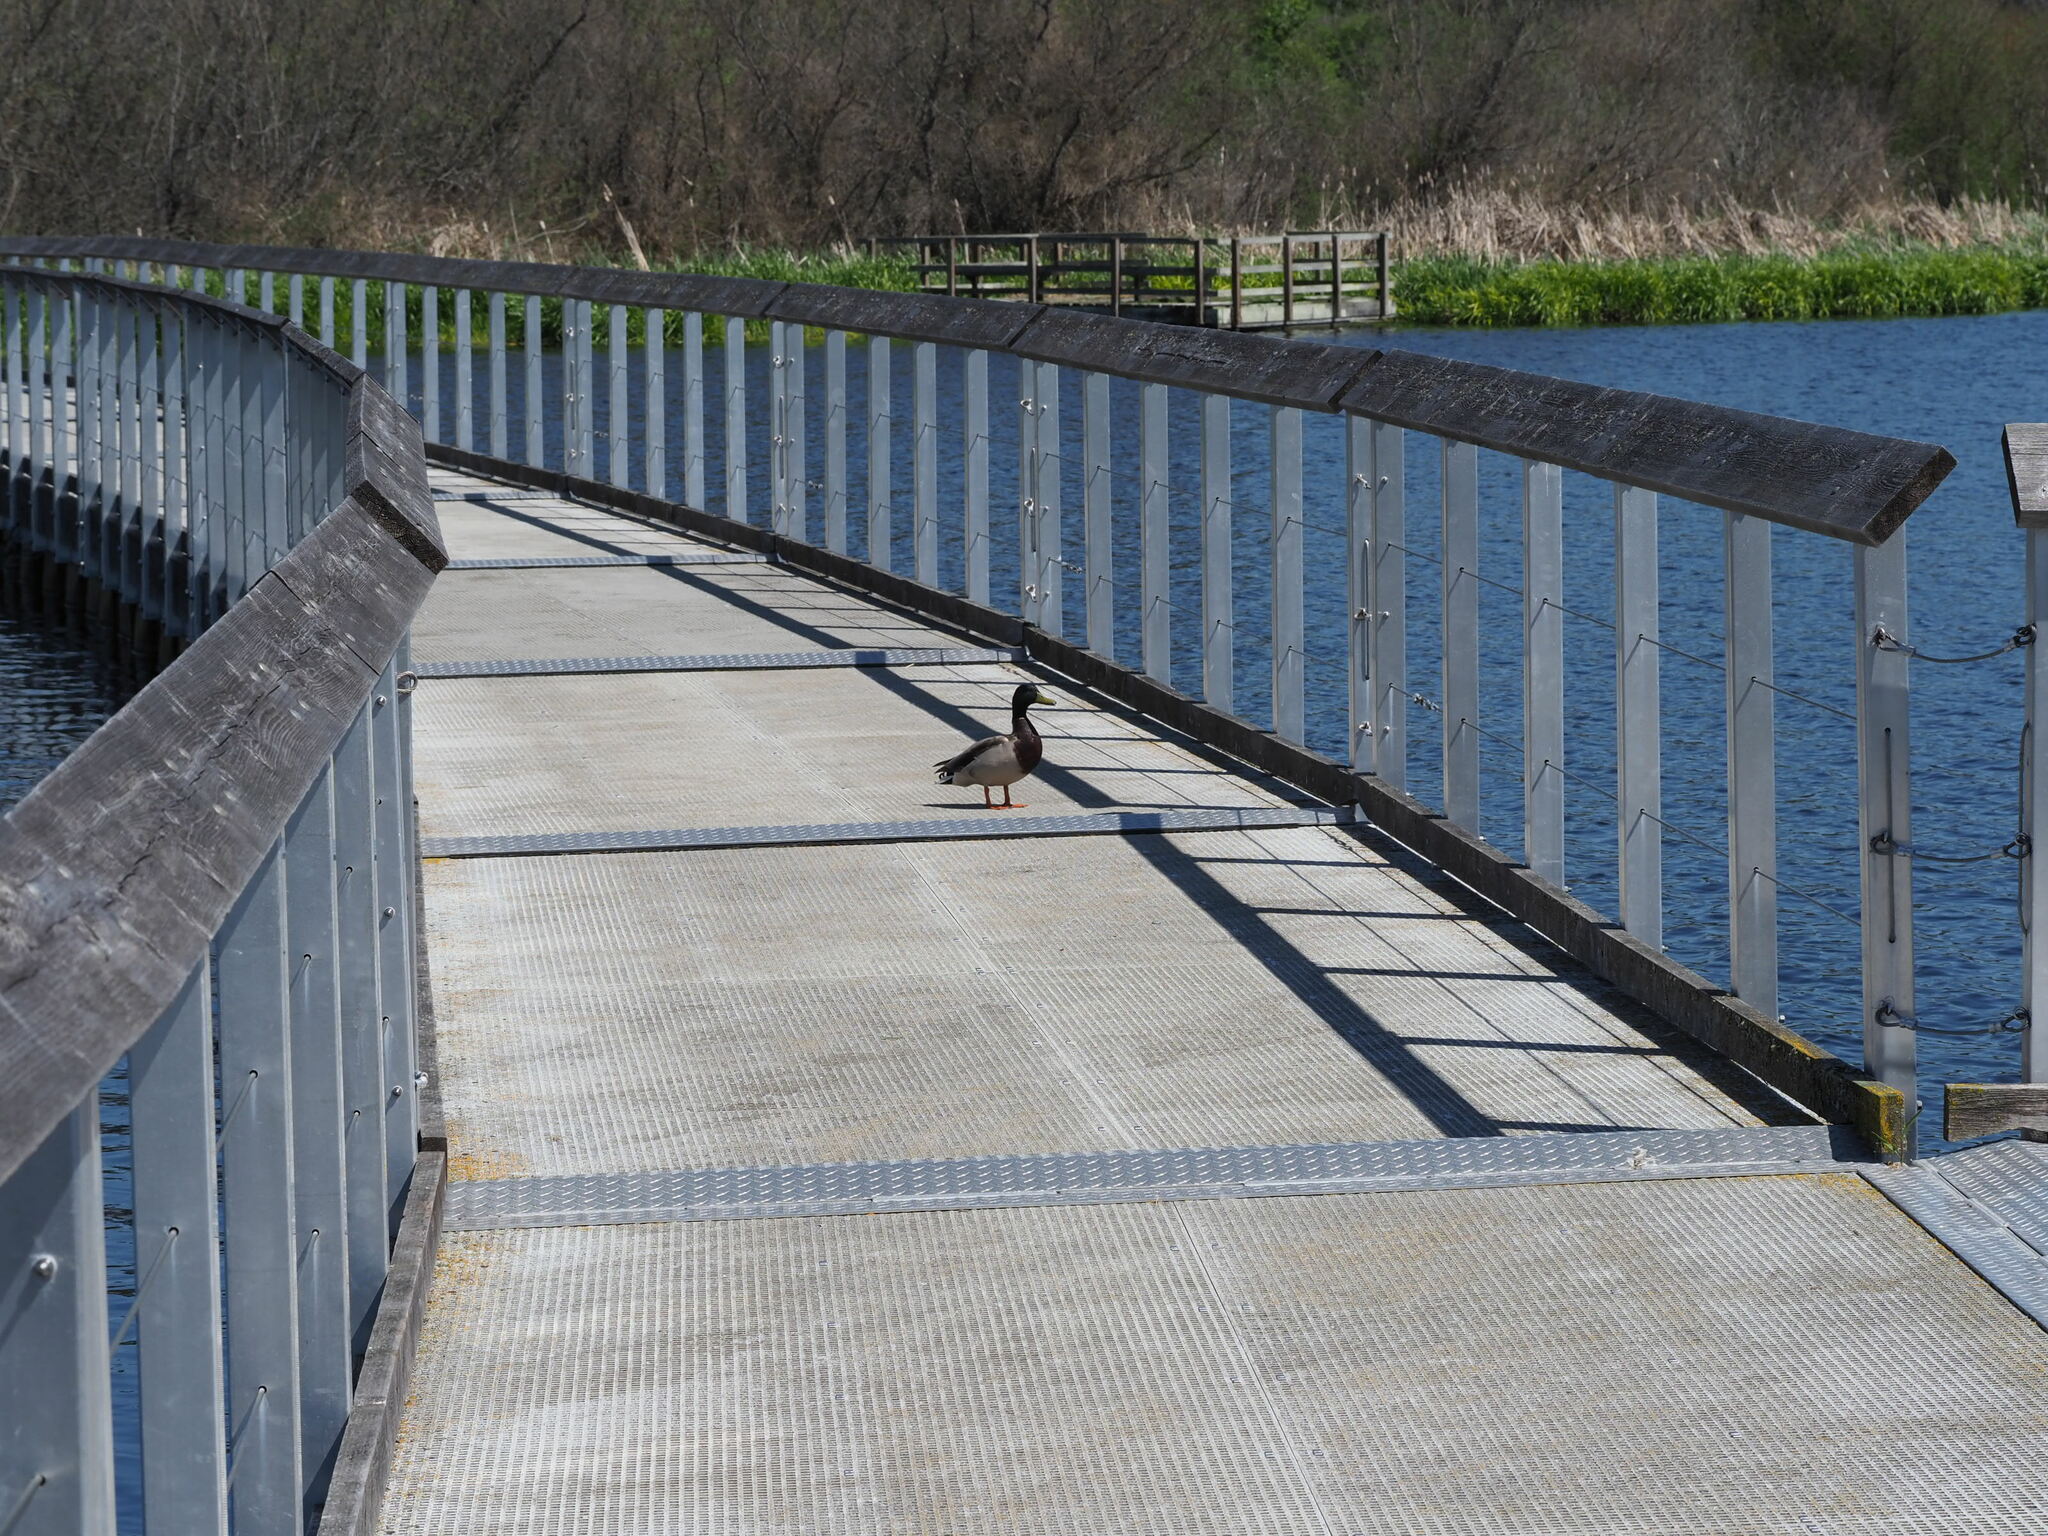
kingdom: Animalia
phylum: Chordata
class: Aves
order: Anseriformes
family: Anatidae
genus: Anas
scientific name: Anas platyrhynchos
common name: Mallard
